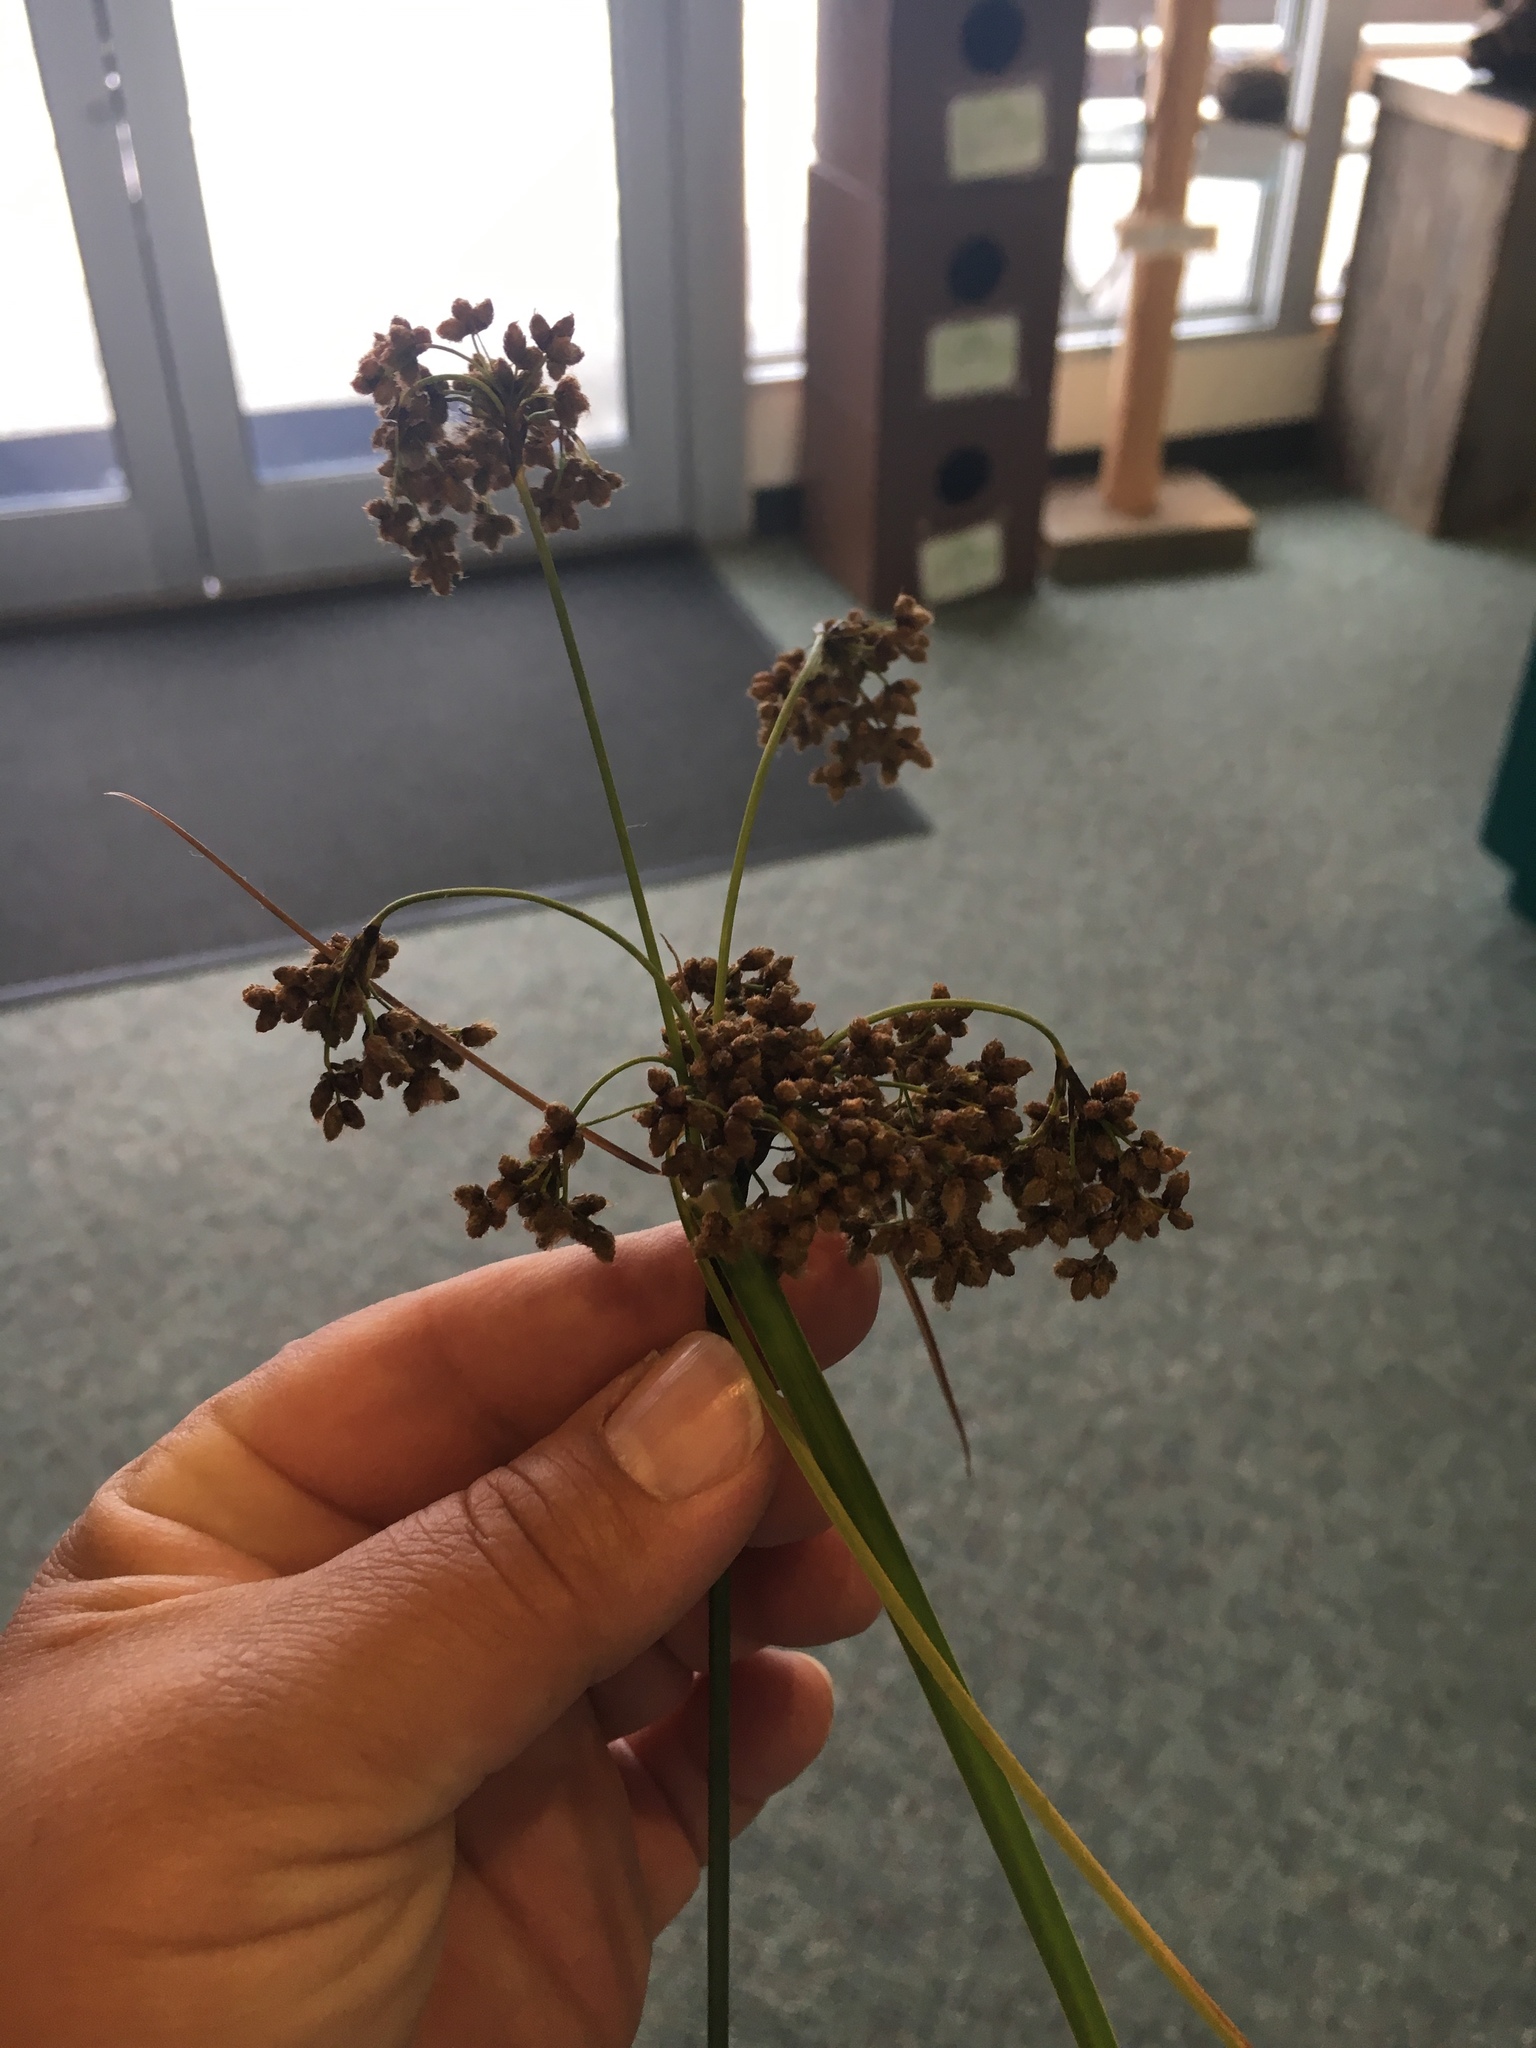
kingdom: Plantae
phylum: Tracheophyta
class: Liliopsida
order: Poales
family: Cyperaceae
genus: Scirpus
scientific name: Scirpus cyperinus
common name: Black-sheathed bulrush
